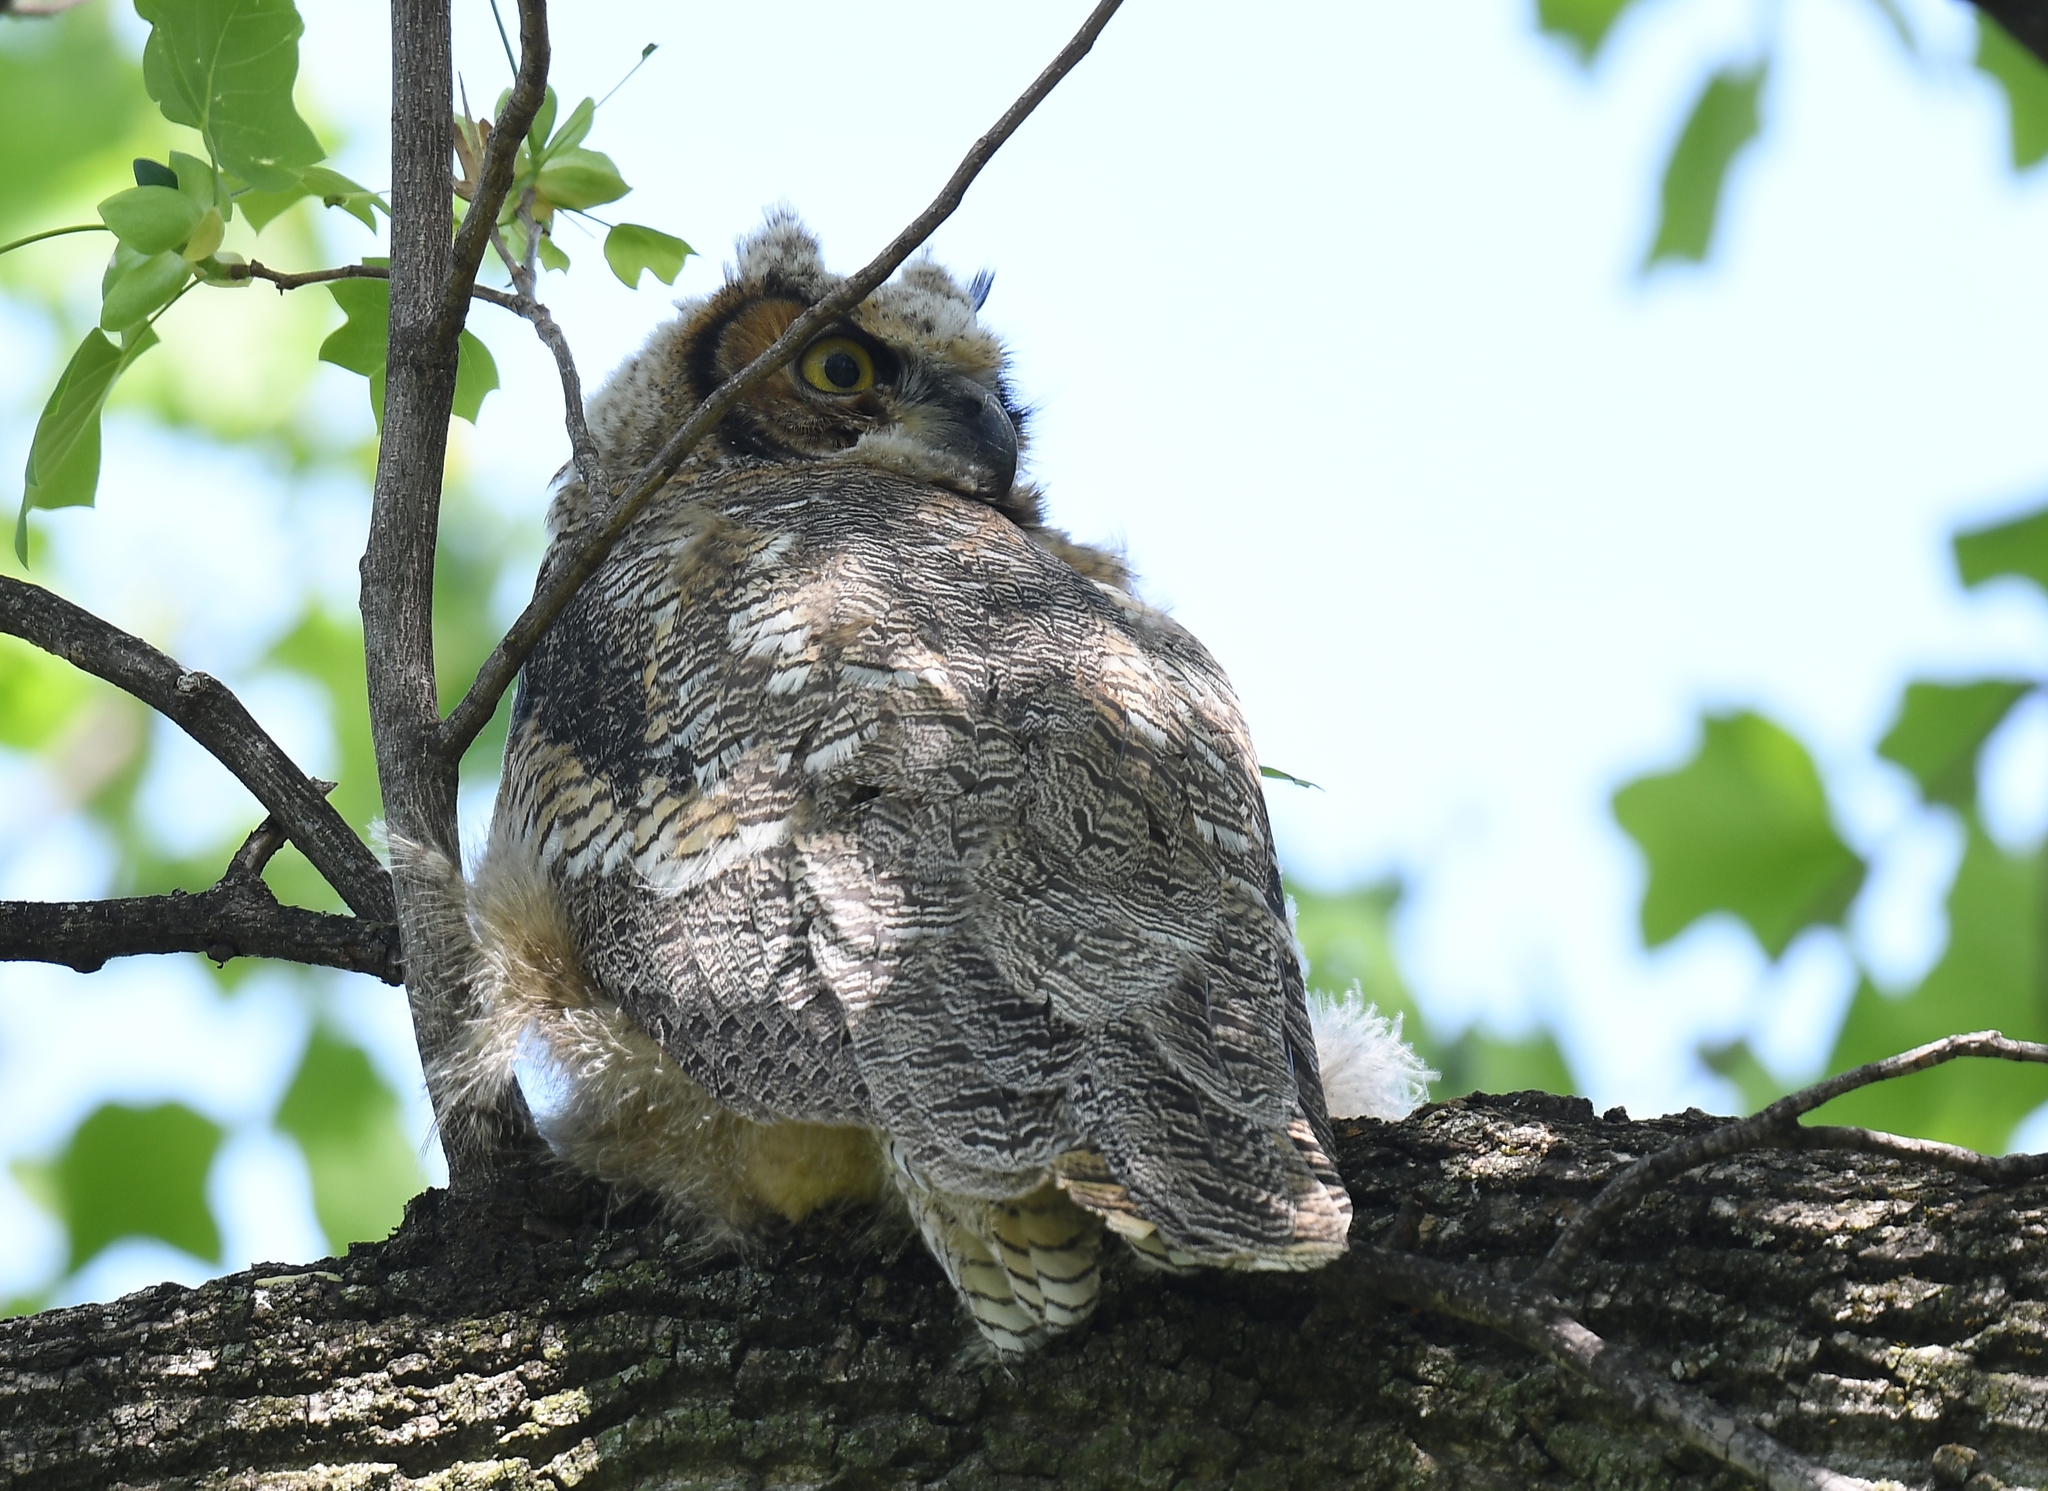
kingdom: Animalia
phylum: Chordata
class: Aves
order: Strigiformes
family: Strigidae
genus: Bubo
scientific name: Bubo virginianus
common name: Great horned owl
